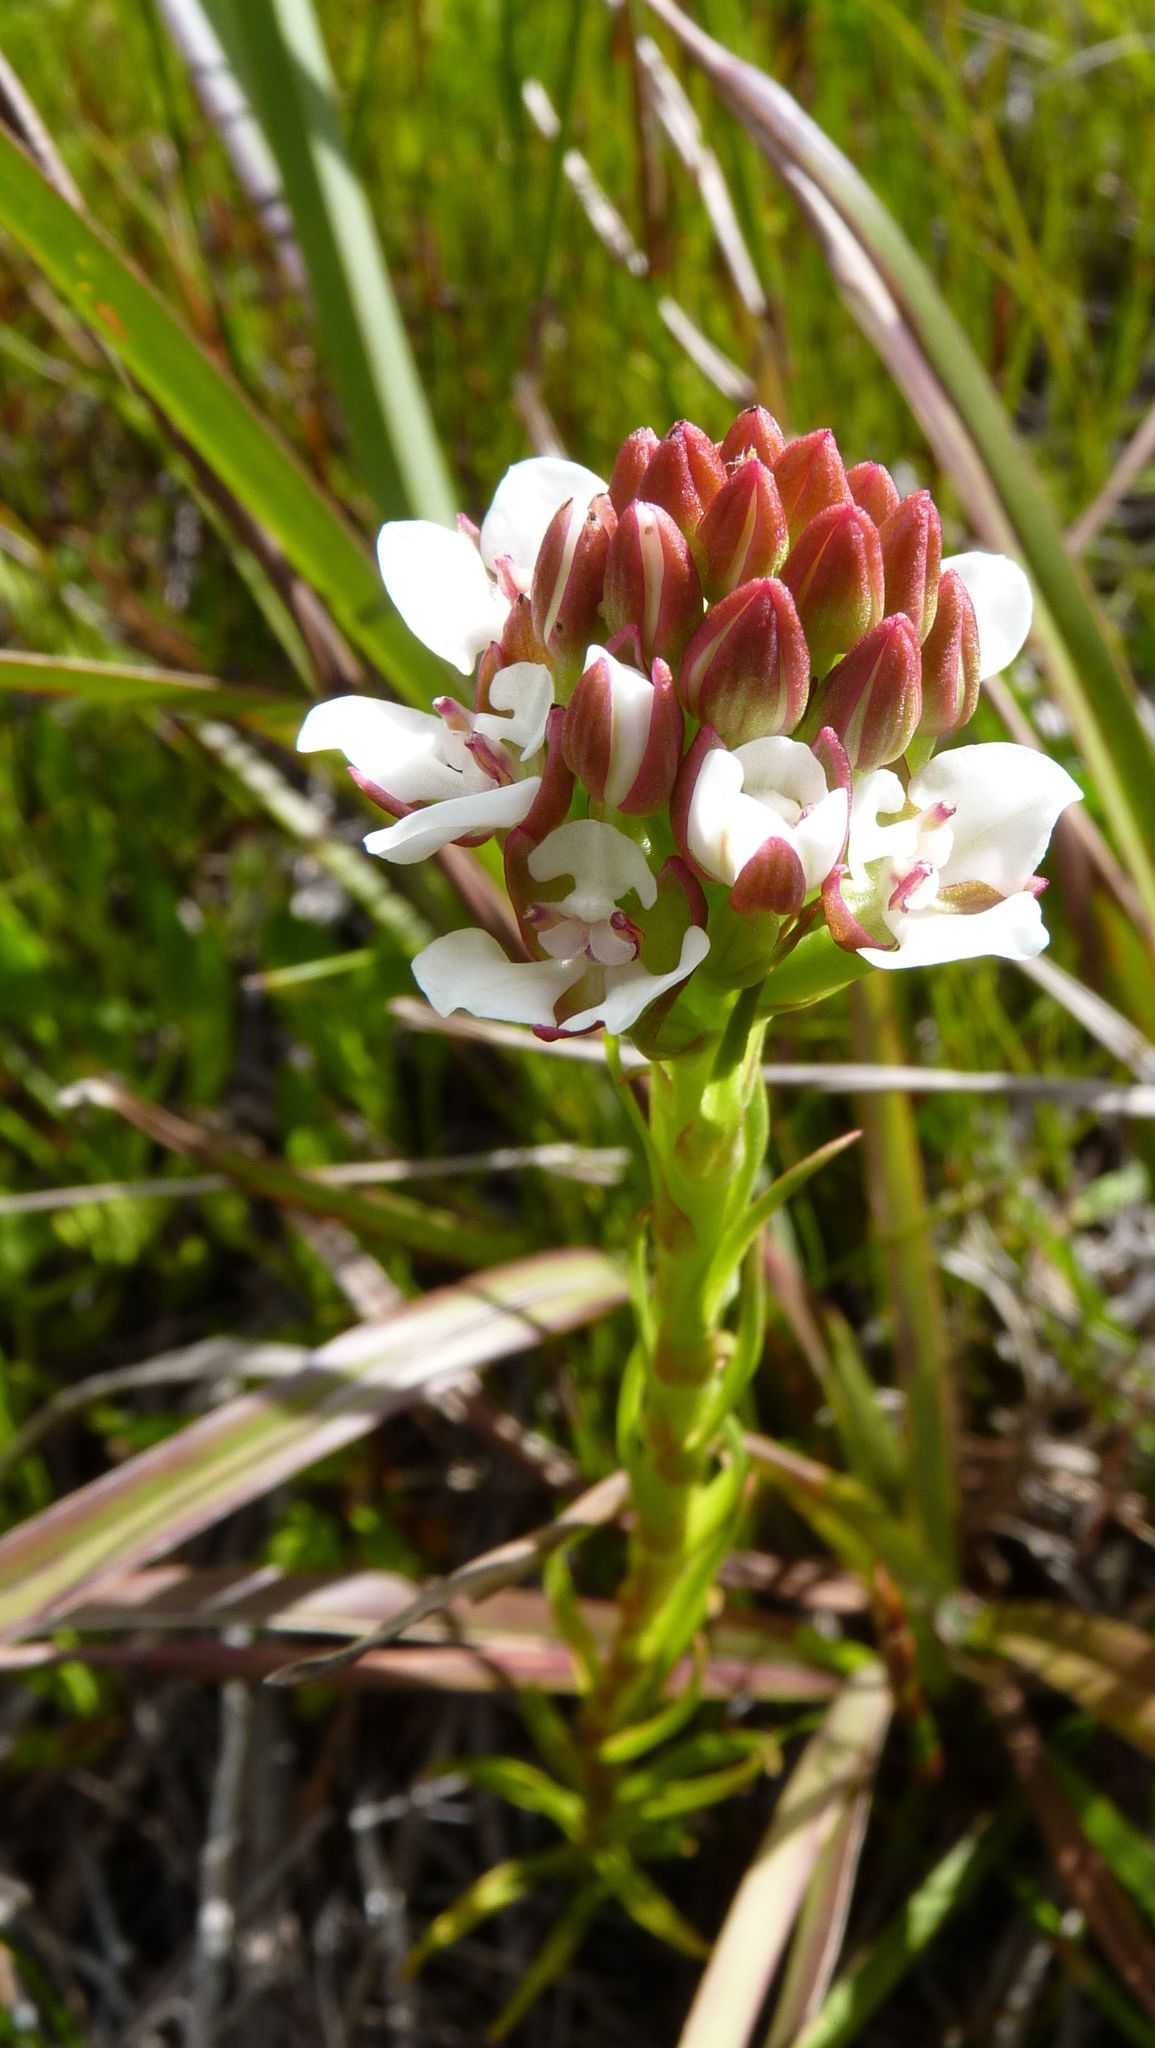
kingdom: Plantae
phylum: Tracheophyta
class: Liliopsida
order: Asparagales
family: Orchidaceae
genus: Ceratandra
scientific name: Ceratandra globosa
